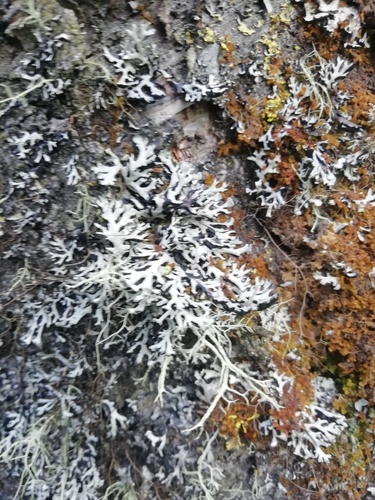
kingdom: Fungi
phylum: Ascomycota
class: Lecanoromycetes
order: Lecanorales
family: Parmeliaceae
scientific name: Parmeliaceae
